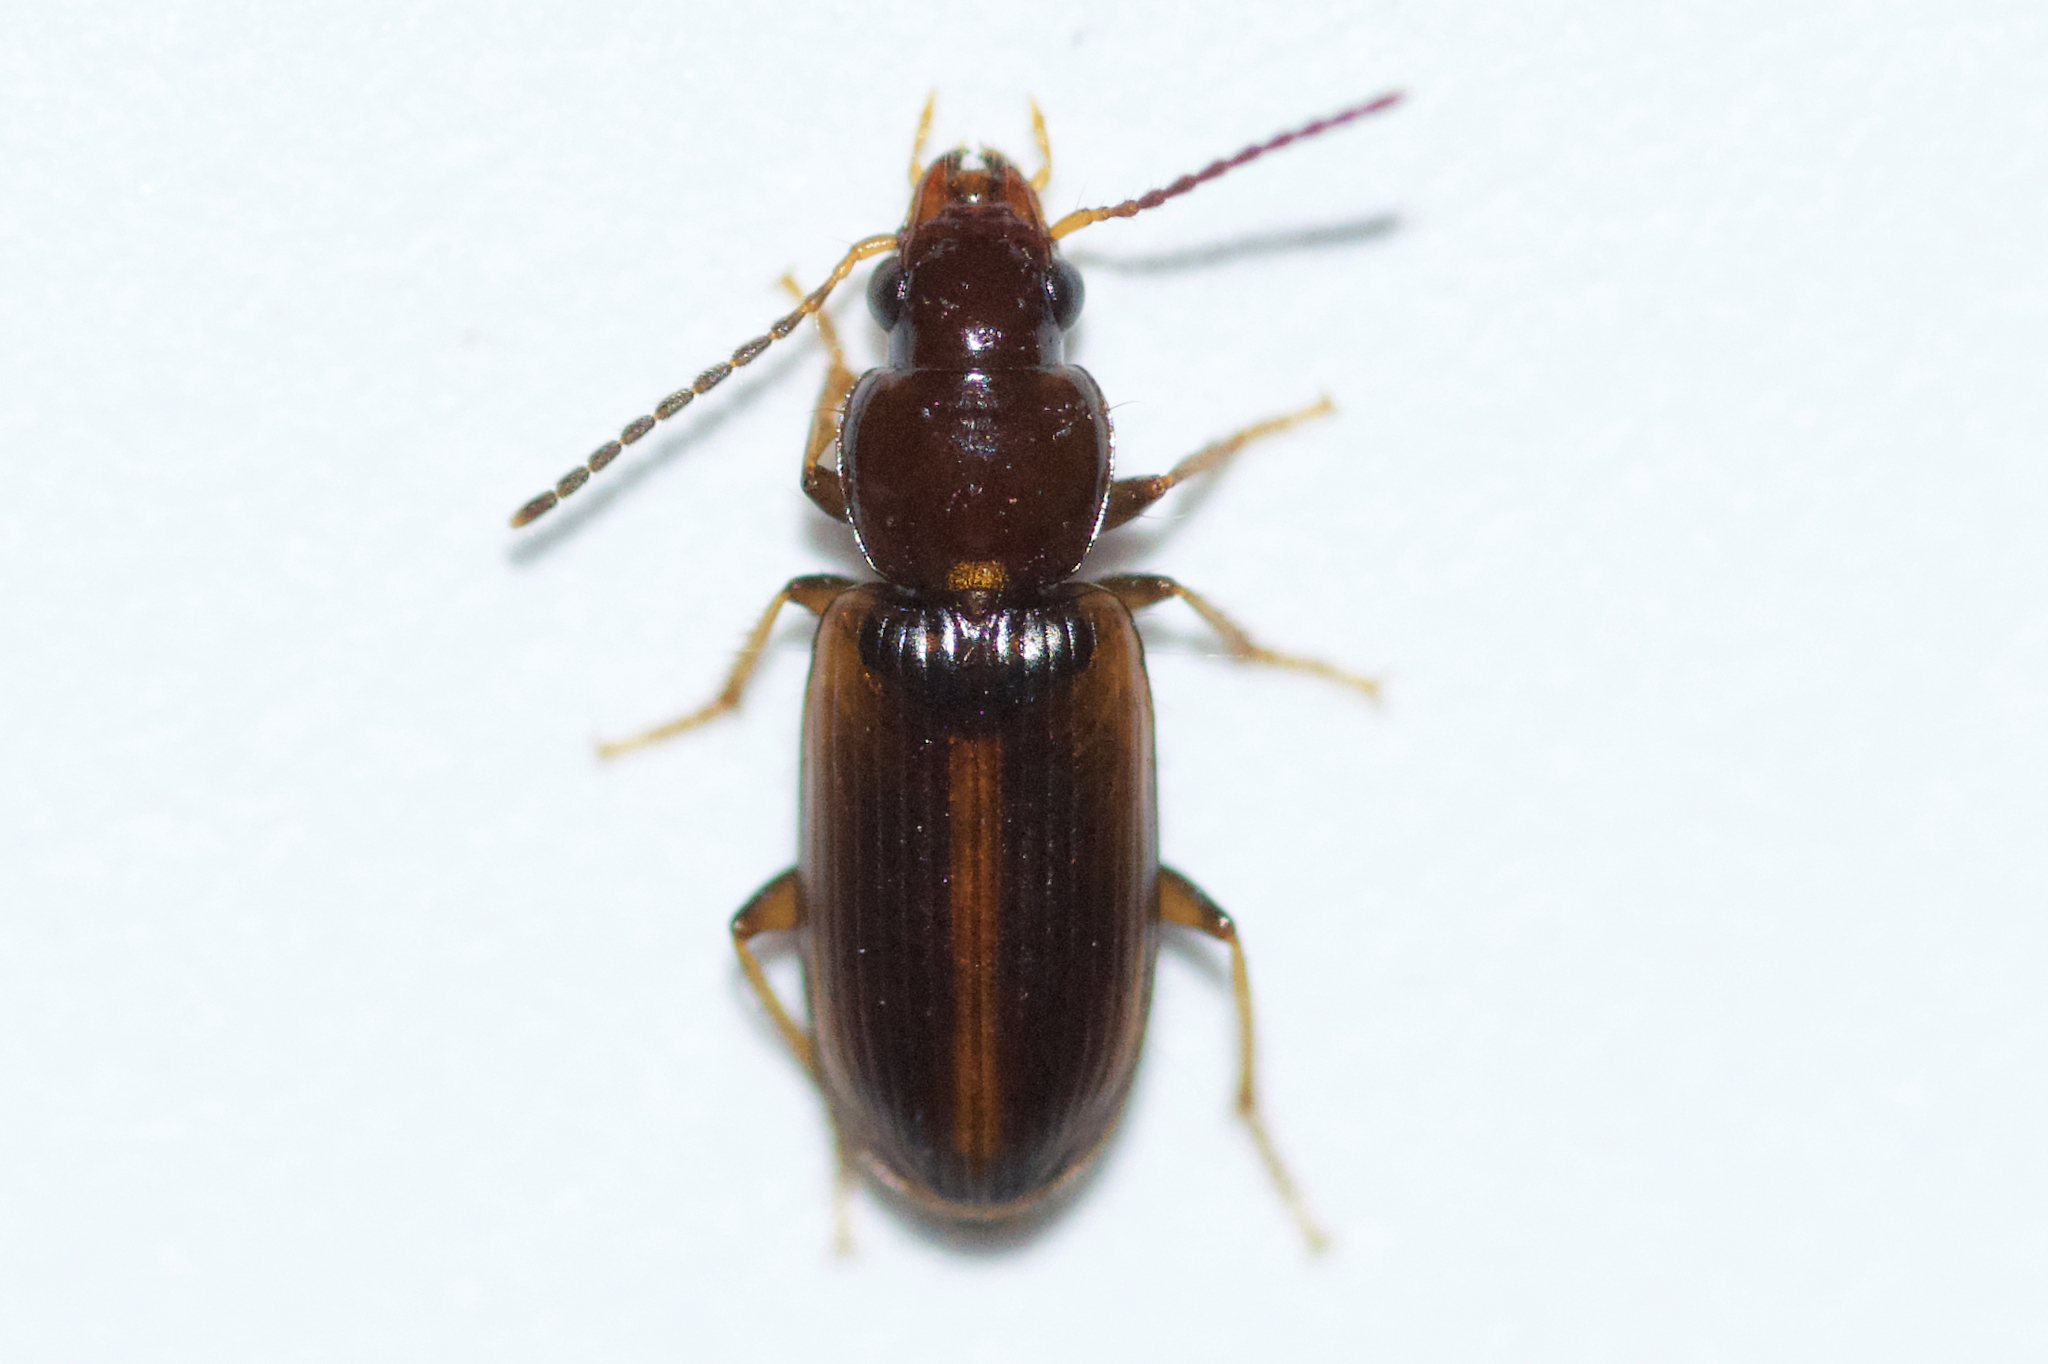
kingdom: Animalia
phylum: Arthropoda
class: Insecta
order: Coleoptera
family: Carabidae
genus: Bradycellus
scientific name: Bradycellus congener
